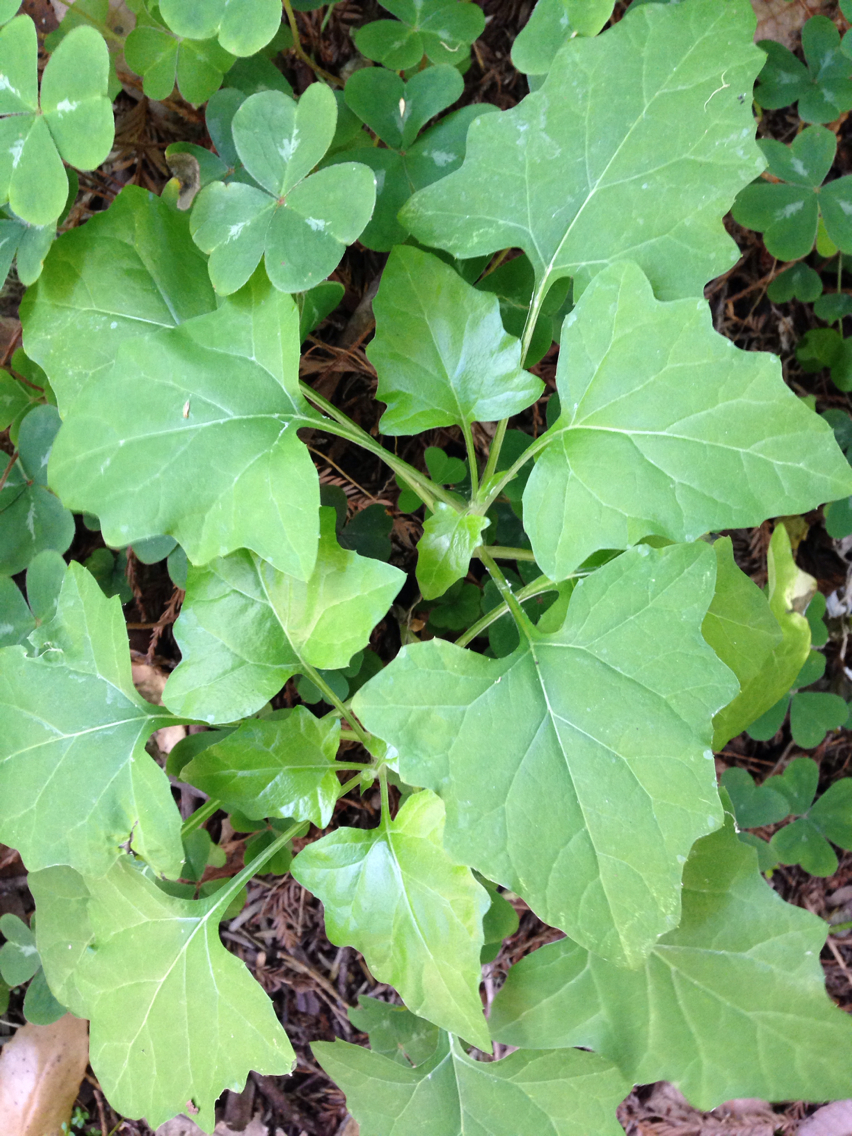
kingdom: Plantae
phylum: Tracheophyta
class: Magnoliopsida
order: Asterales
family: Asteraceae
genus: Adenocaulon
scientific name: Adenocaulon bicolor
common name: Trailplant
